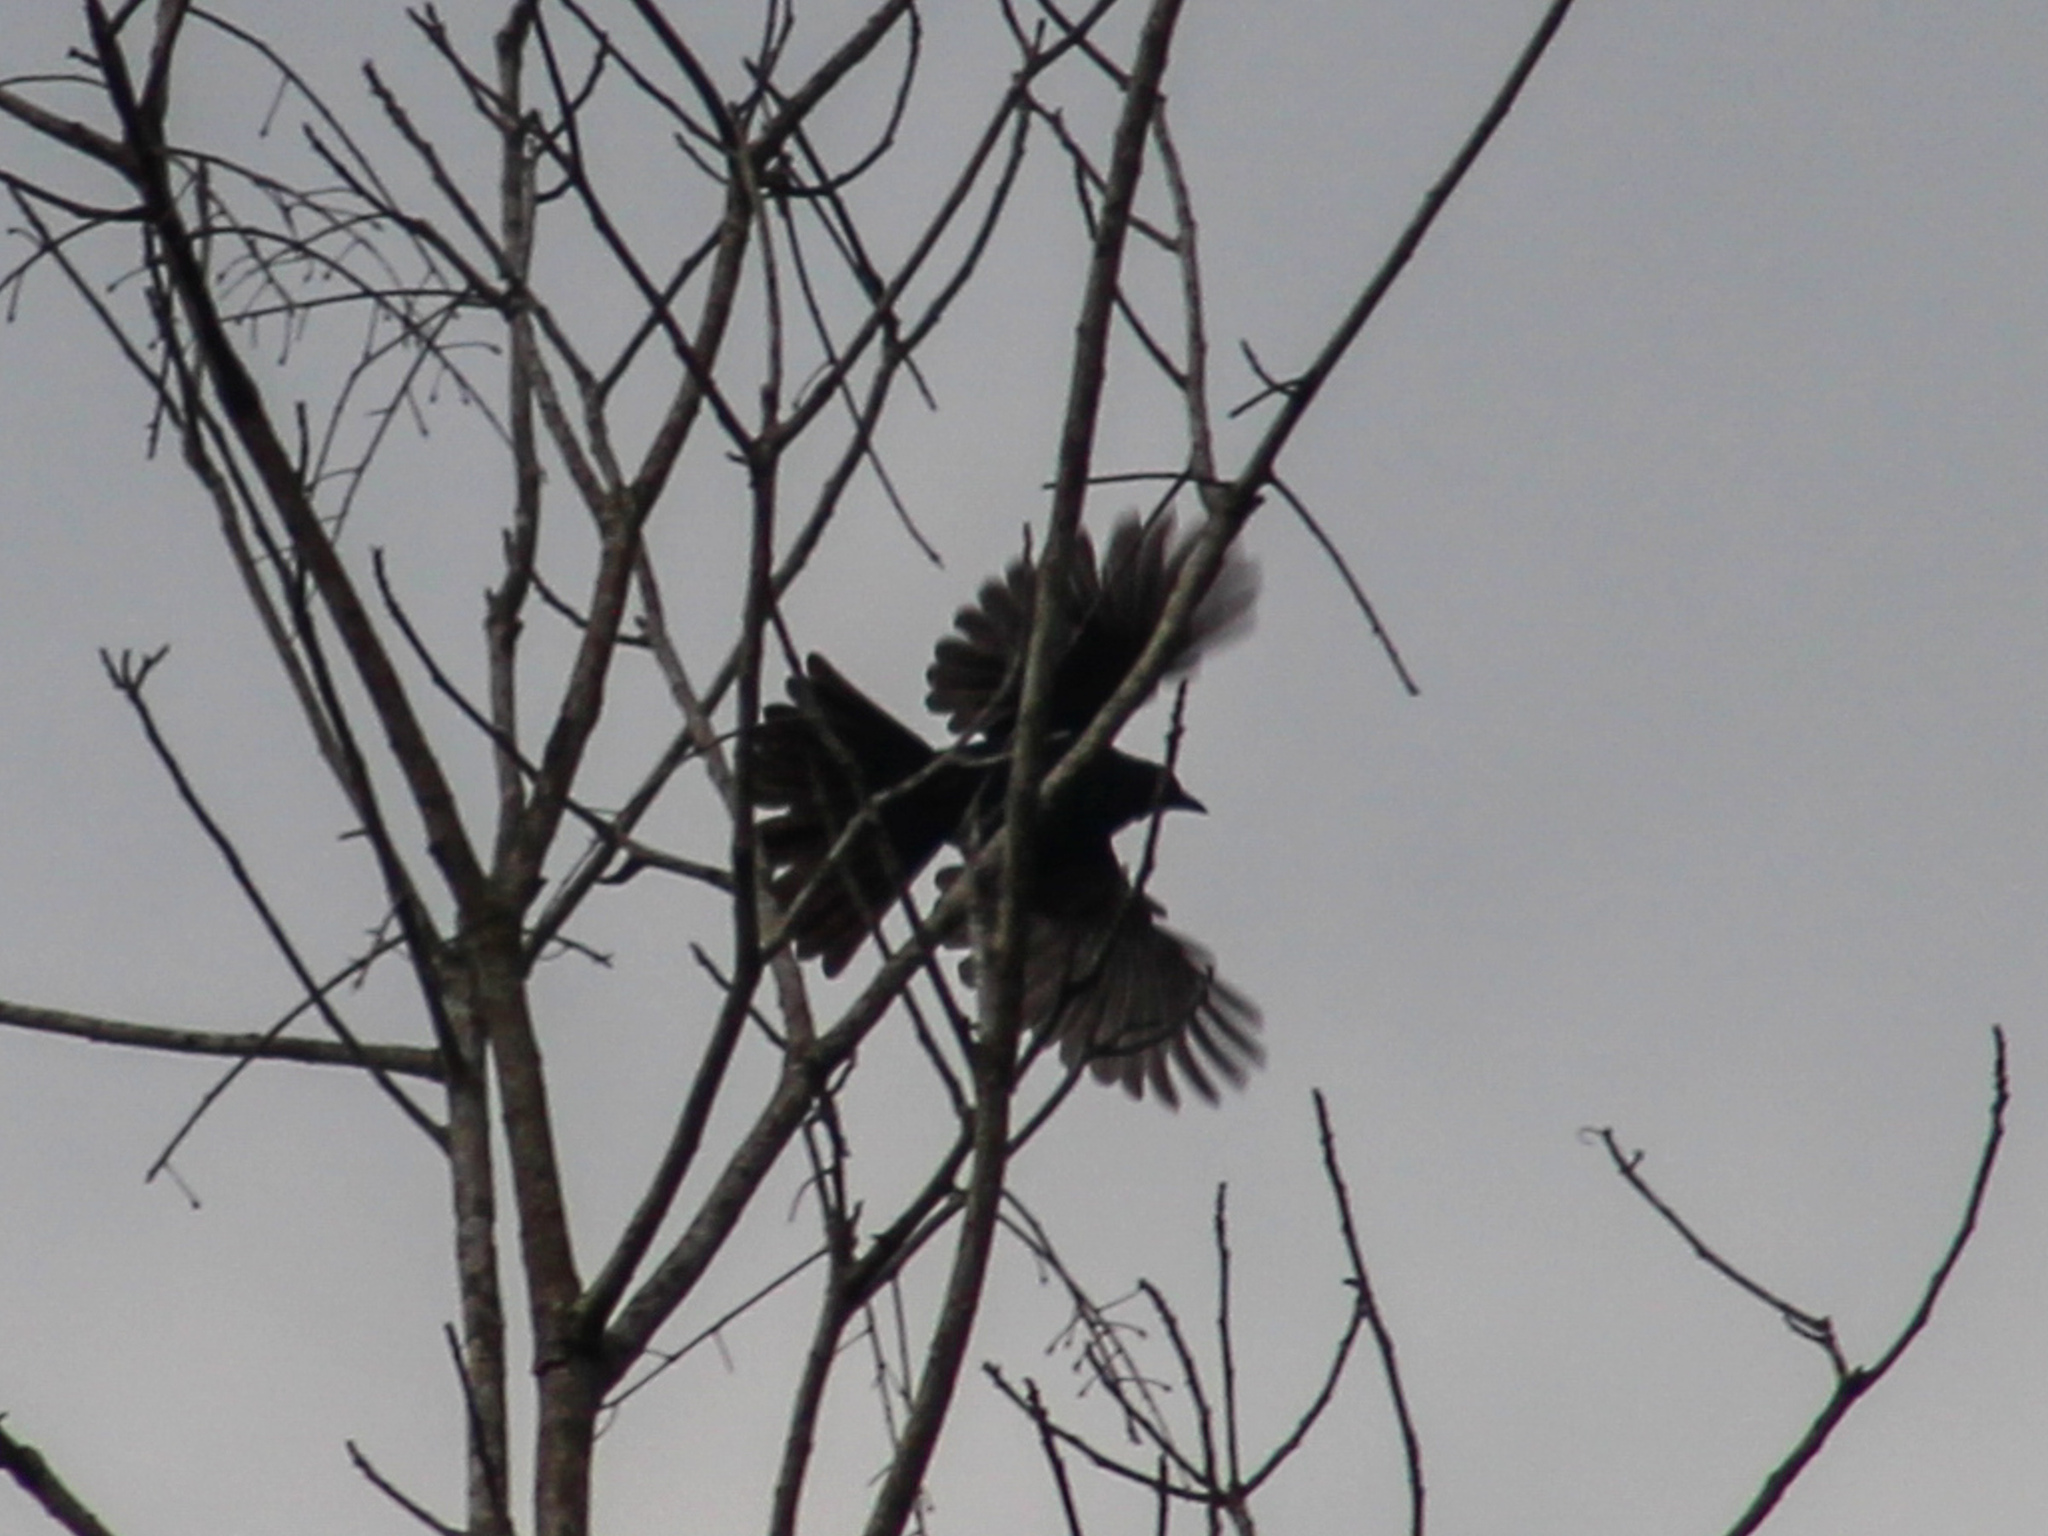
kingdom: Animalia
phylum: Chordata
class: Aves
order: Passeriformes
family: Irenidae
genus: Irena
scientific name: Irena puella
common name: Asian fairy-bluebird
